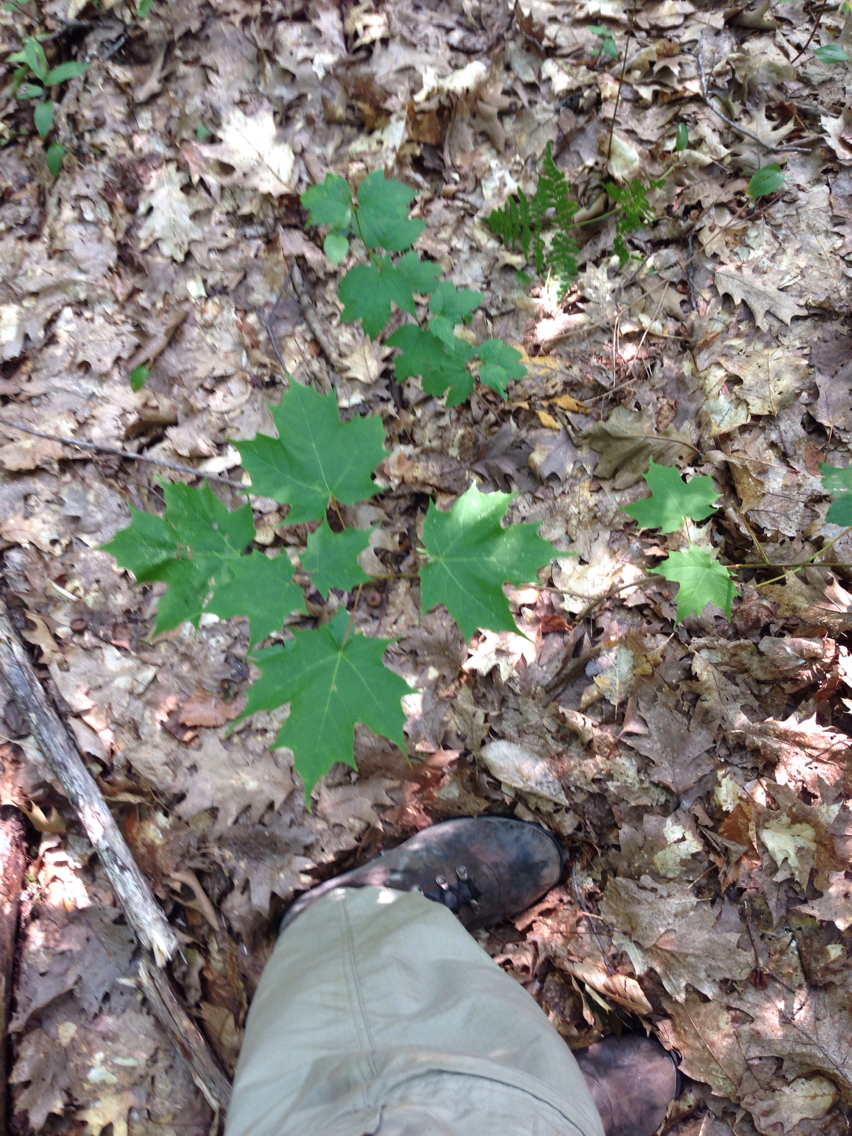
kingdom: Plantae
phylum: Tracheophyta
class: Magnoliopsida
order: Sapindales
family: Sapindaceae
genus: Acer
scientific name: Acer saccharum
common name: Sugar maple
